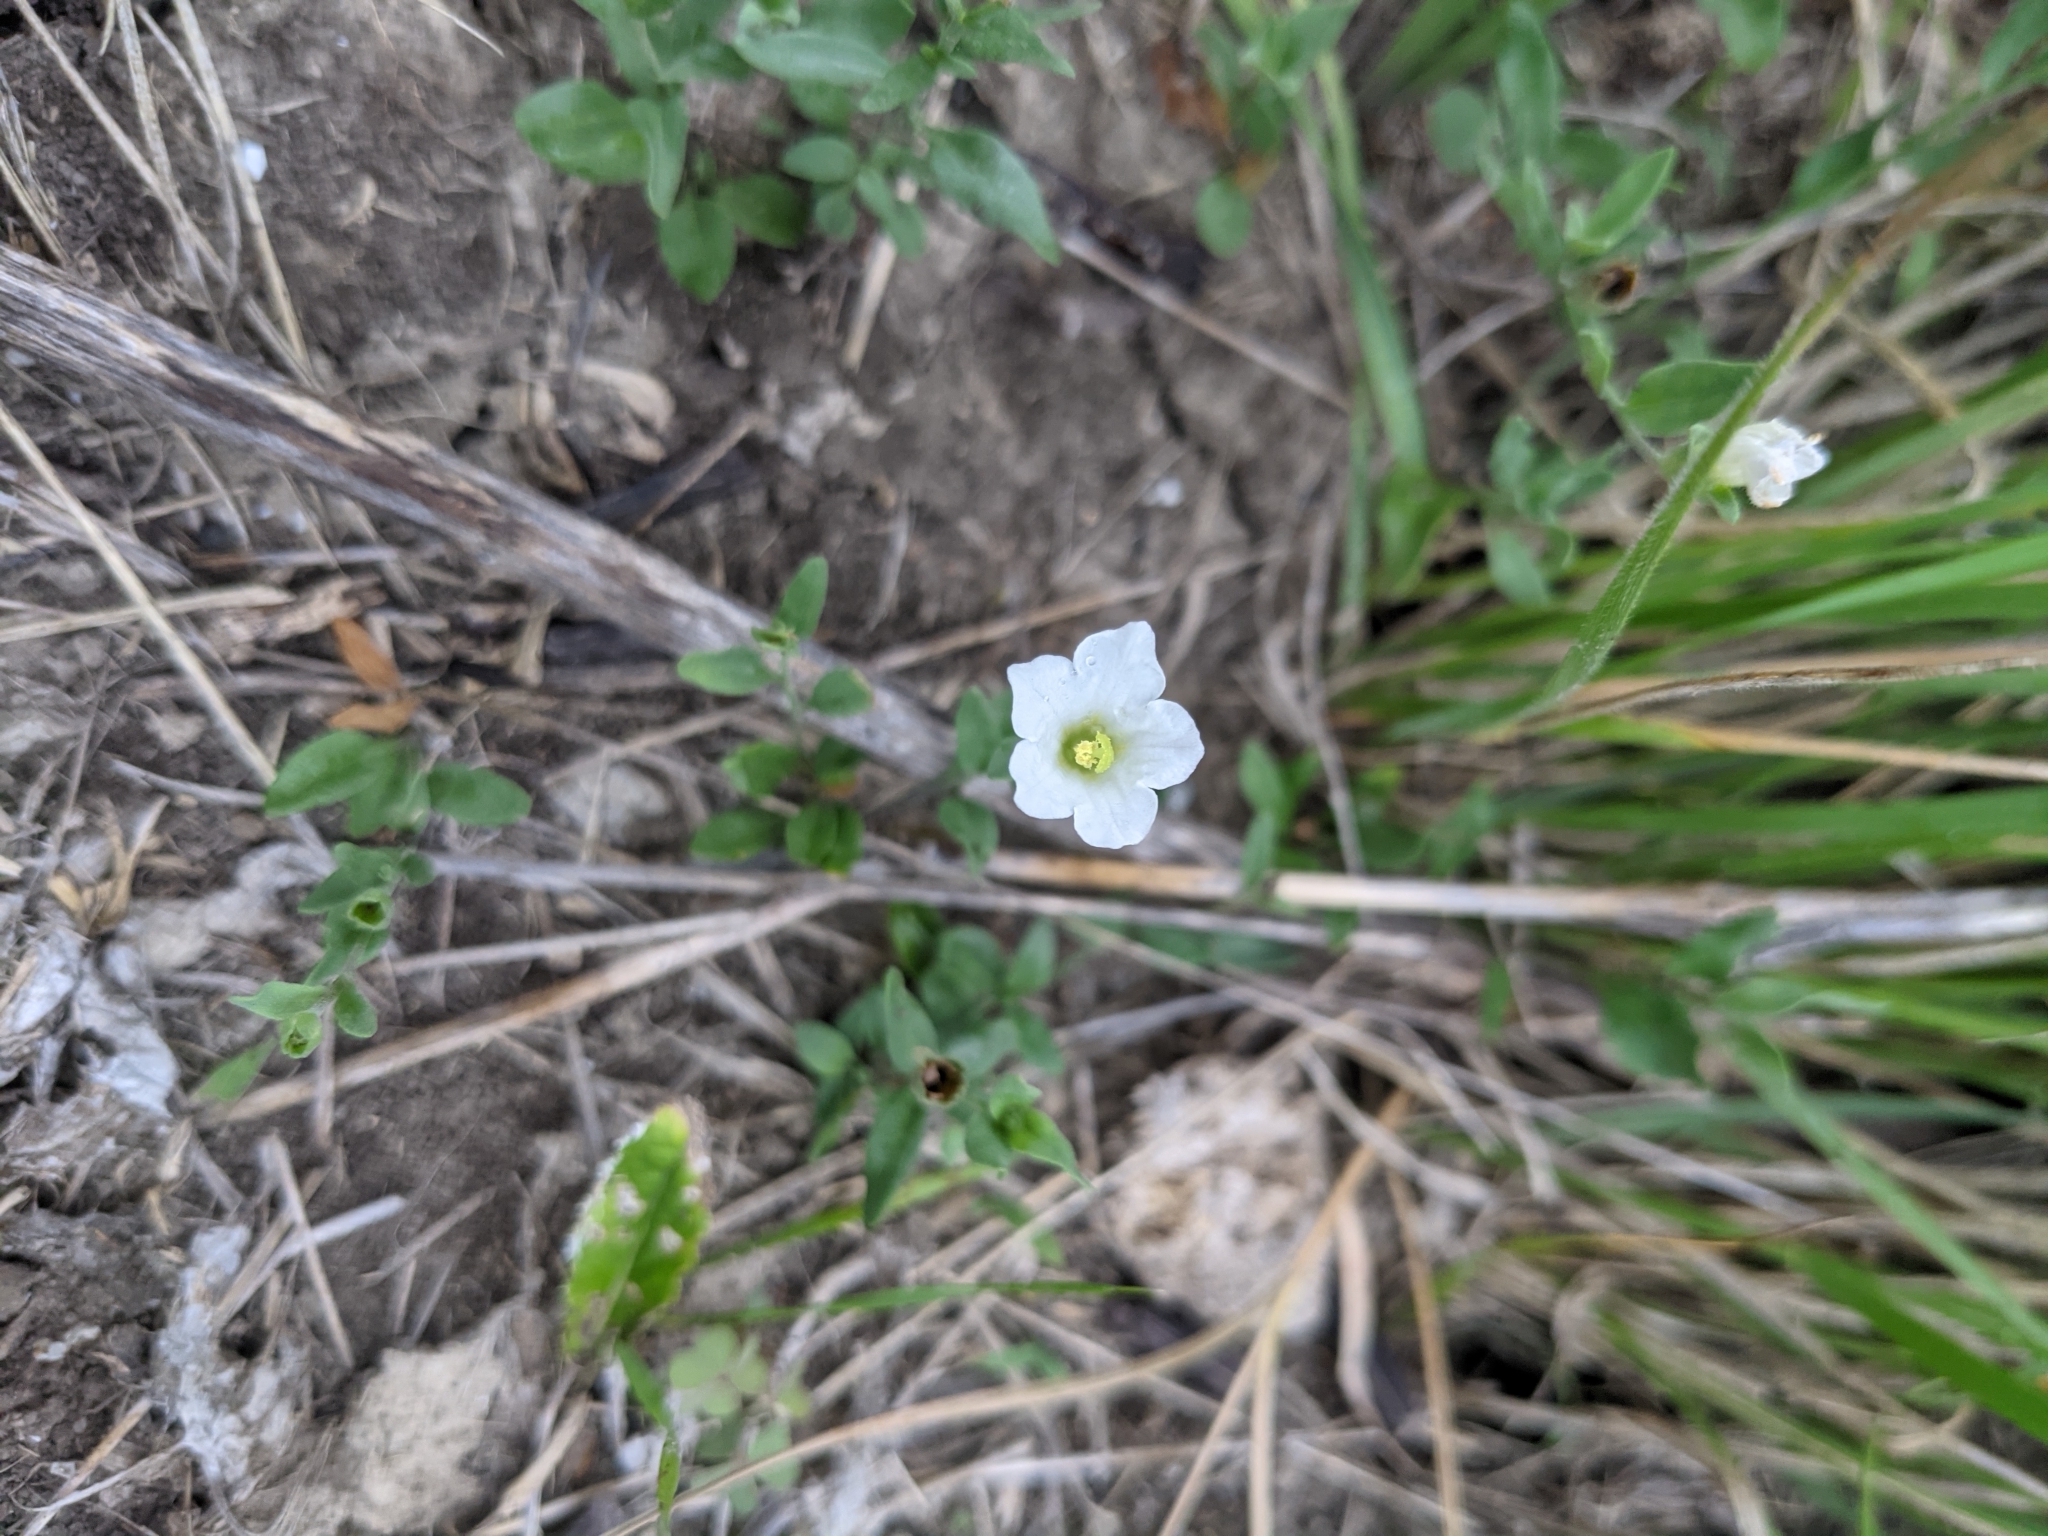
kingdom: Plantae
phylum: Tracheophyta
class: Magnoliopsida
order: Solanales
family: Solanaceae
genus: Salpiglossis
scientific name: Salpiglossis erecta
